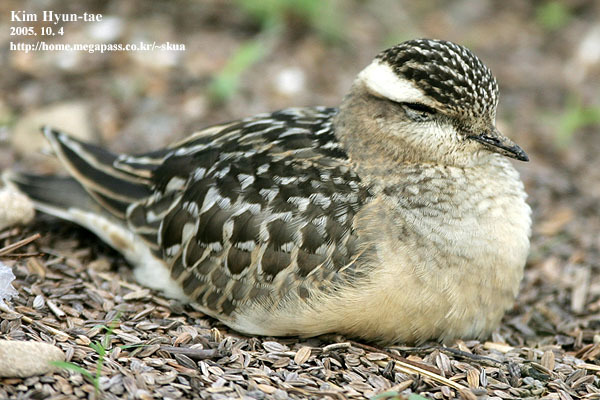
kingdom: Animalia
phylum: Chordata
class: Aves
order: Charadriiformes
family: Charadriidae
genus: Charadrius
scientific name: Charadrius morinellus
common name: Eurasian dotterel
